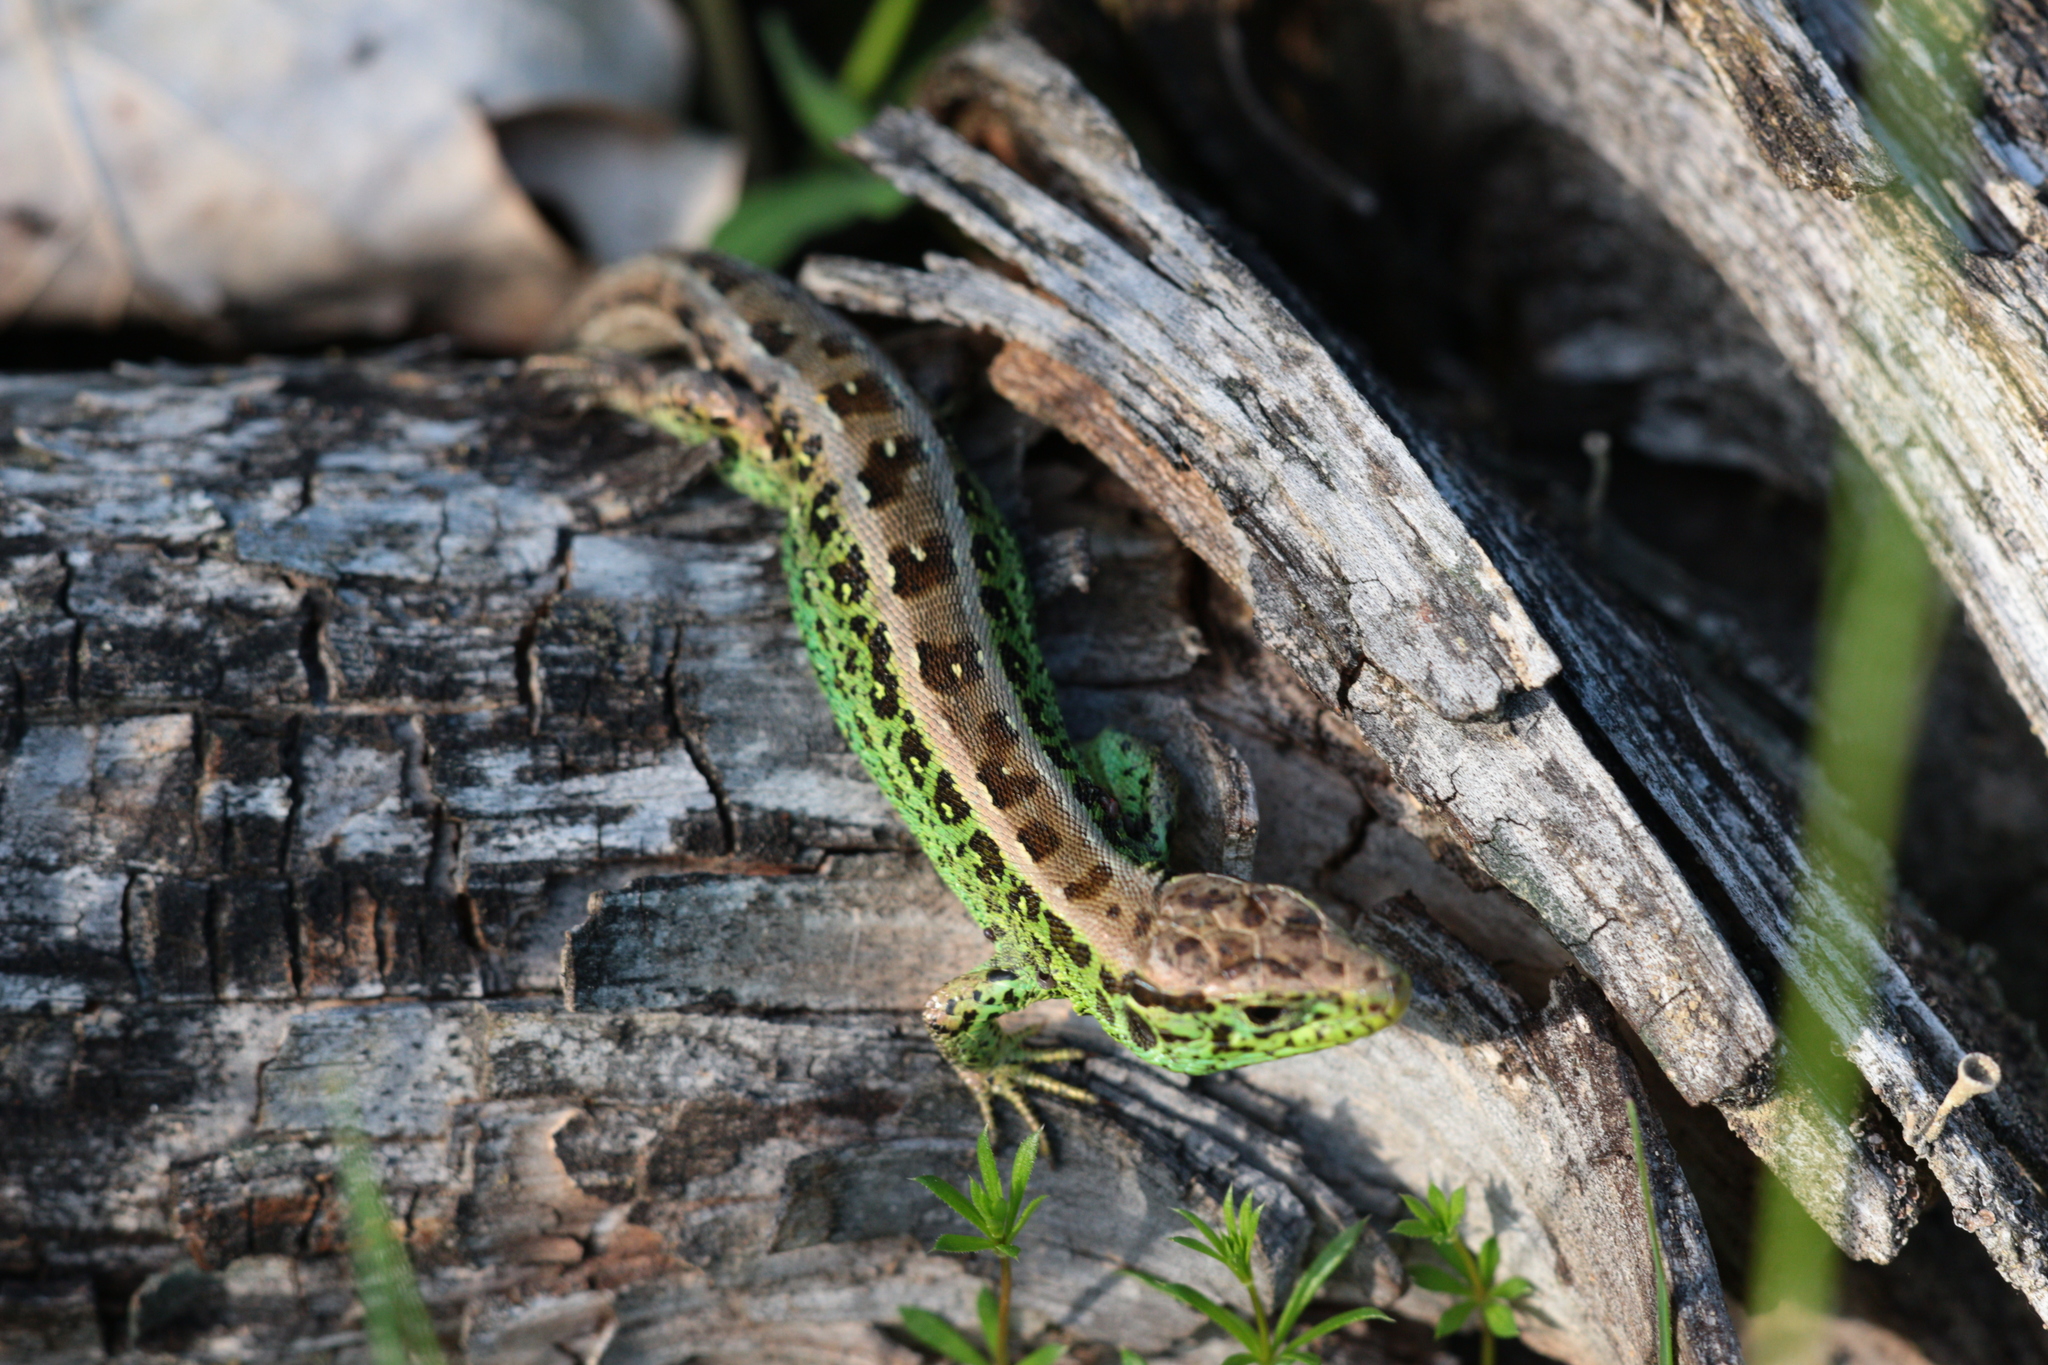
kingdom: Animalia
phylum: Chordata
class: Squamata
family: Lacertidae
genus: Lacerta
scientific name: Lacerta agilis
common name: Sand lizard
